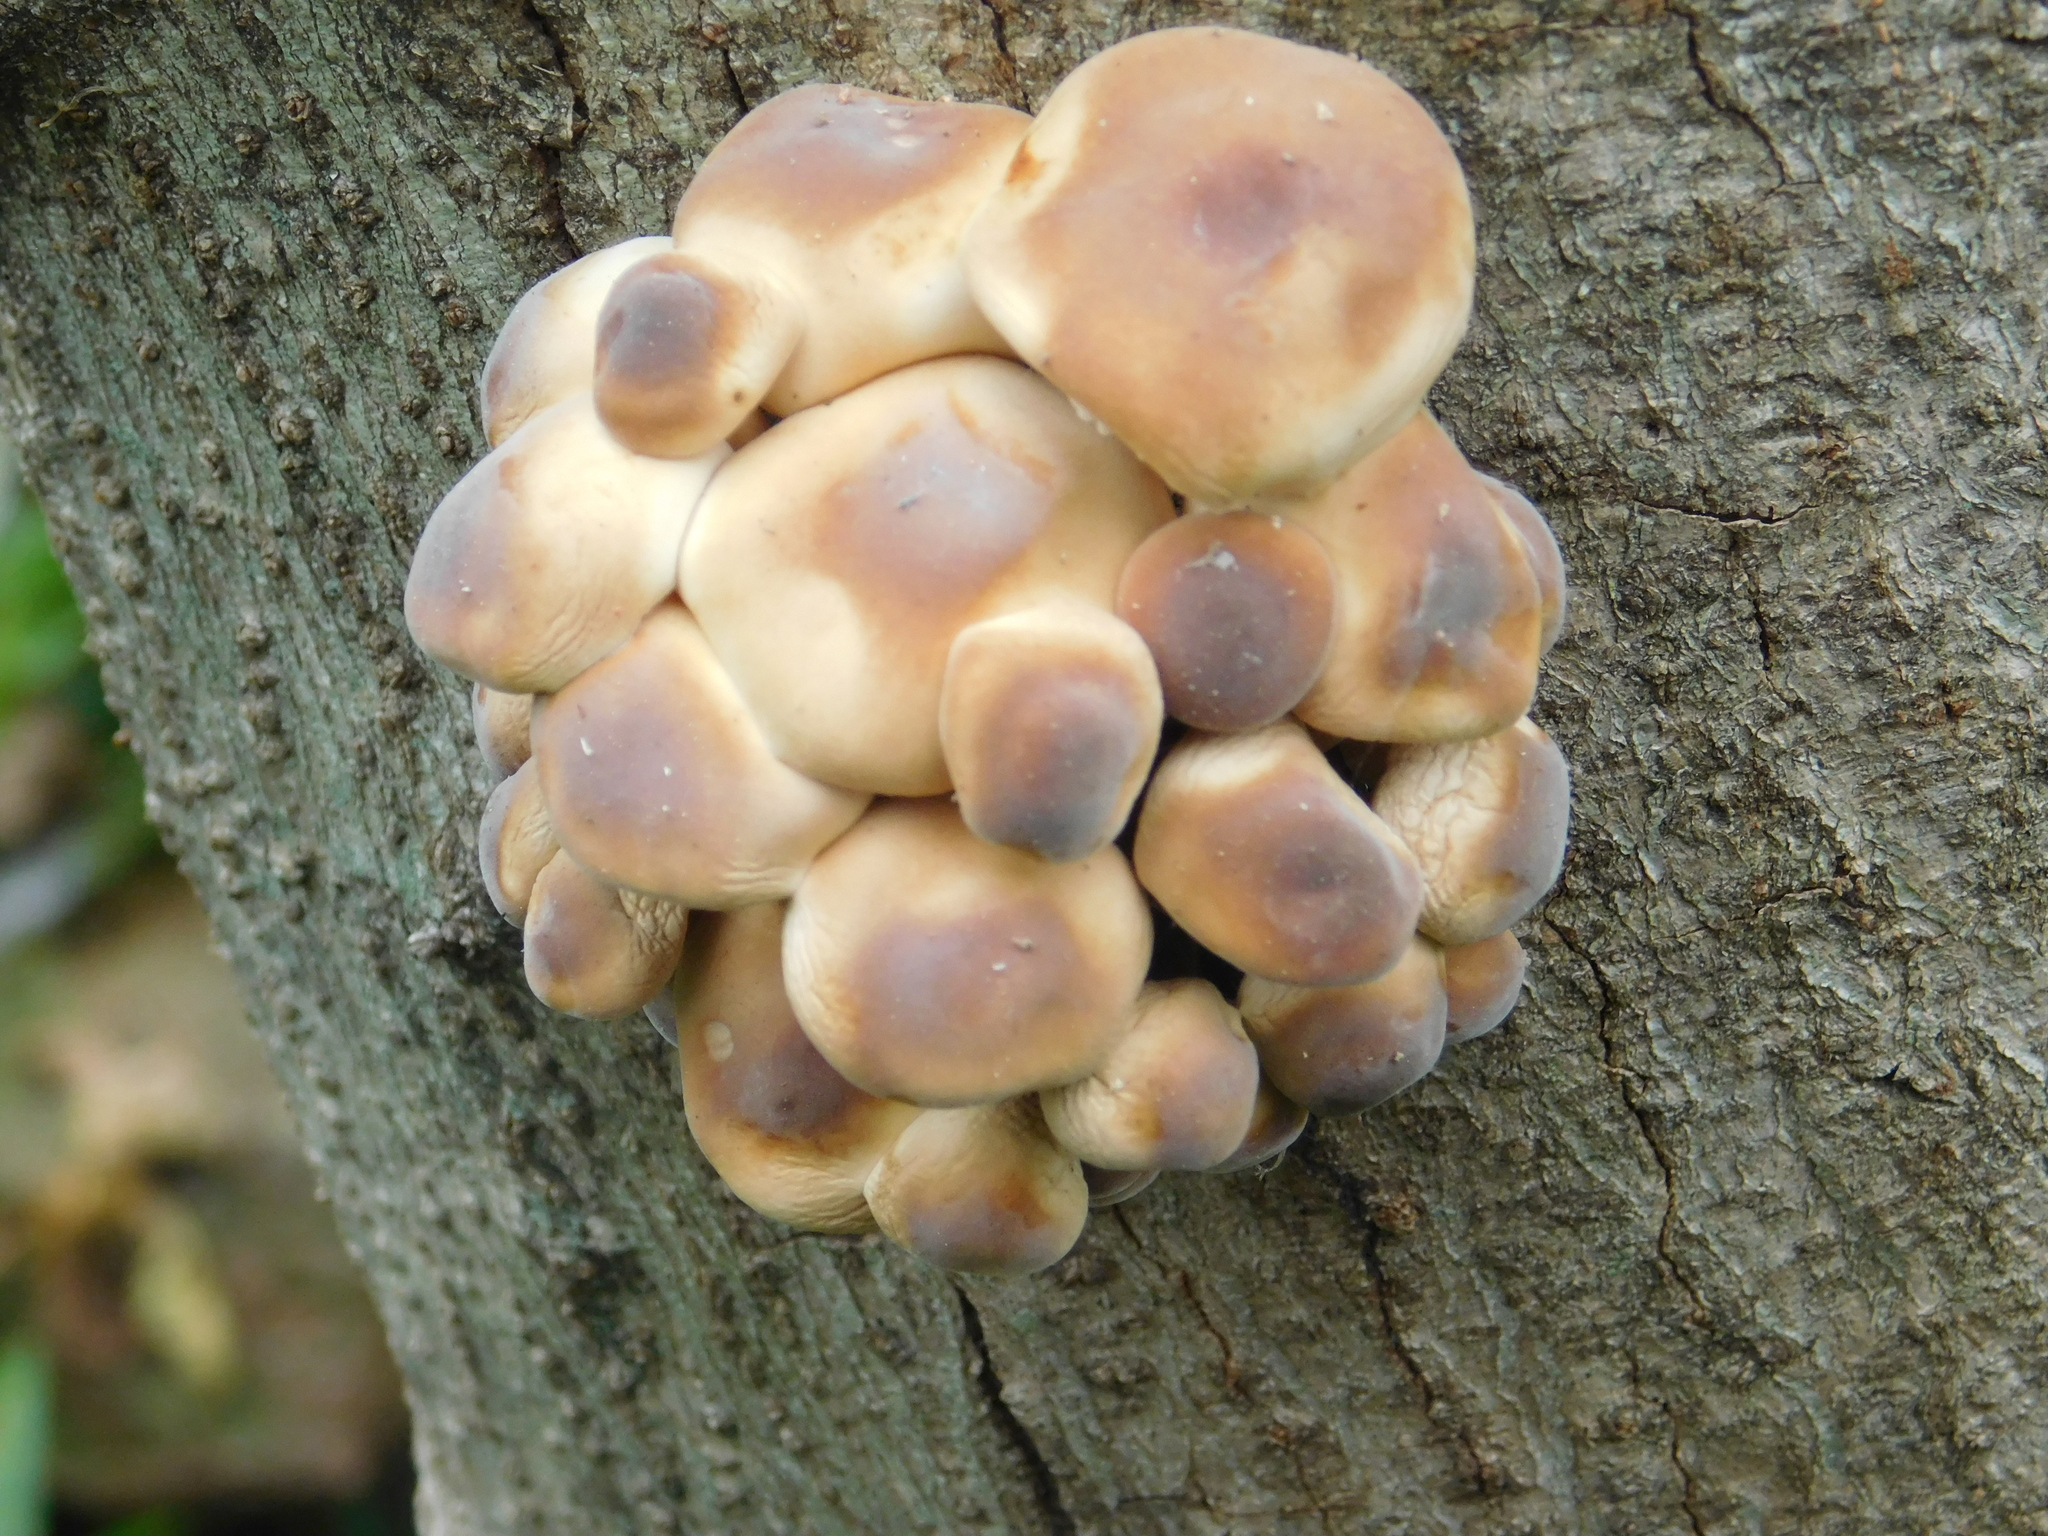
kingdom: Fungi
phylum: Basidiomycota
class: Agaricomycetes
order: Agaricales
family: Physalacriaceae
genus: Flammulina
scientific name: Flammulina velutipes
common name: Velvet shank
